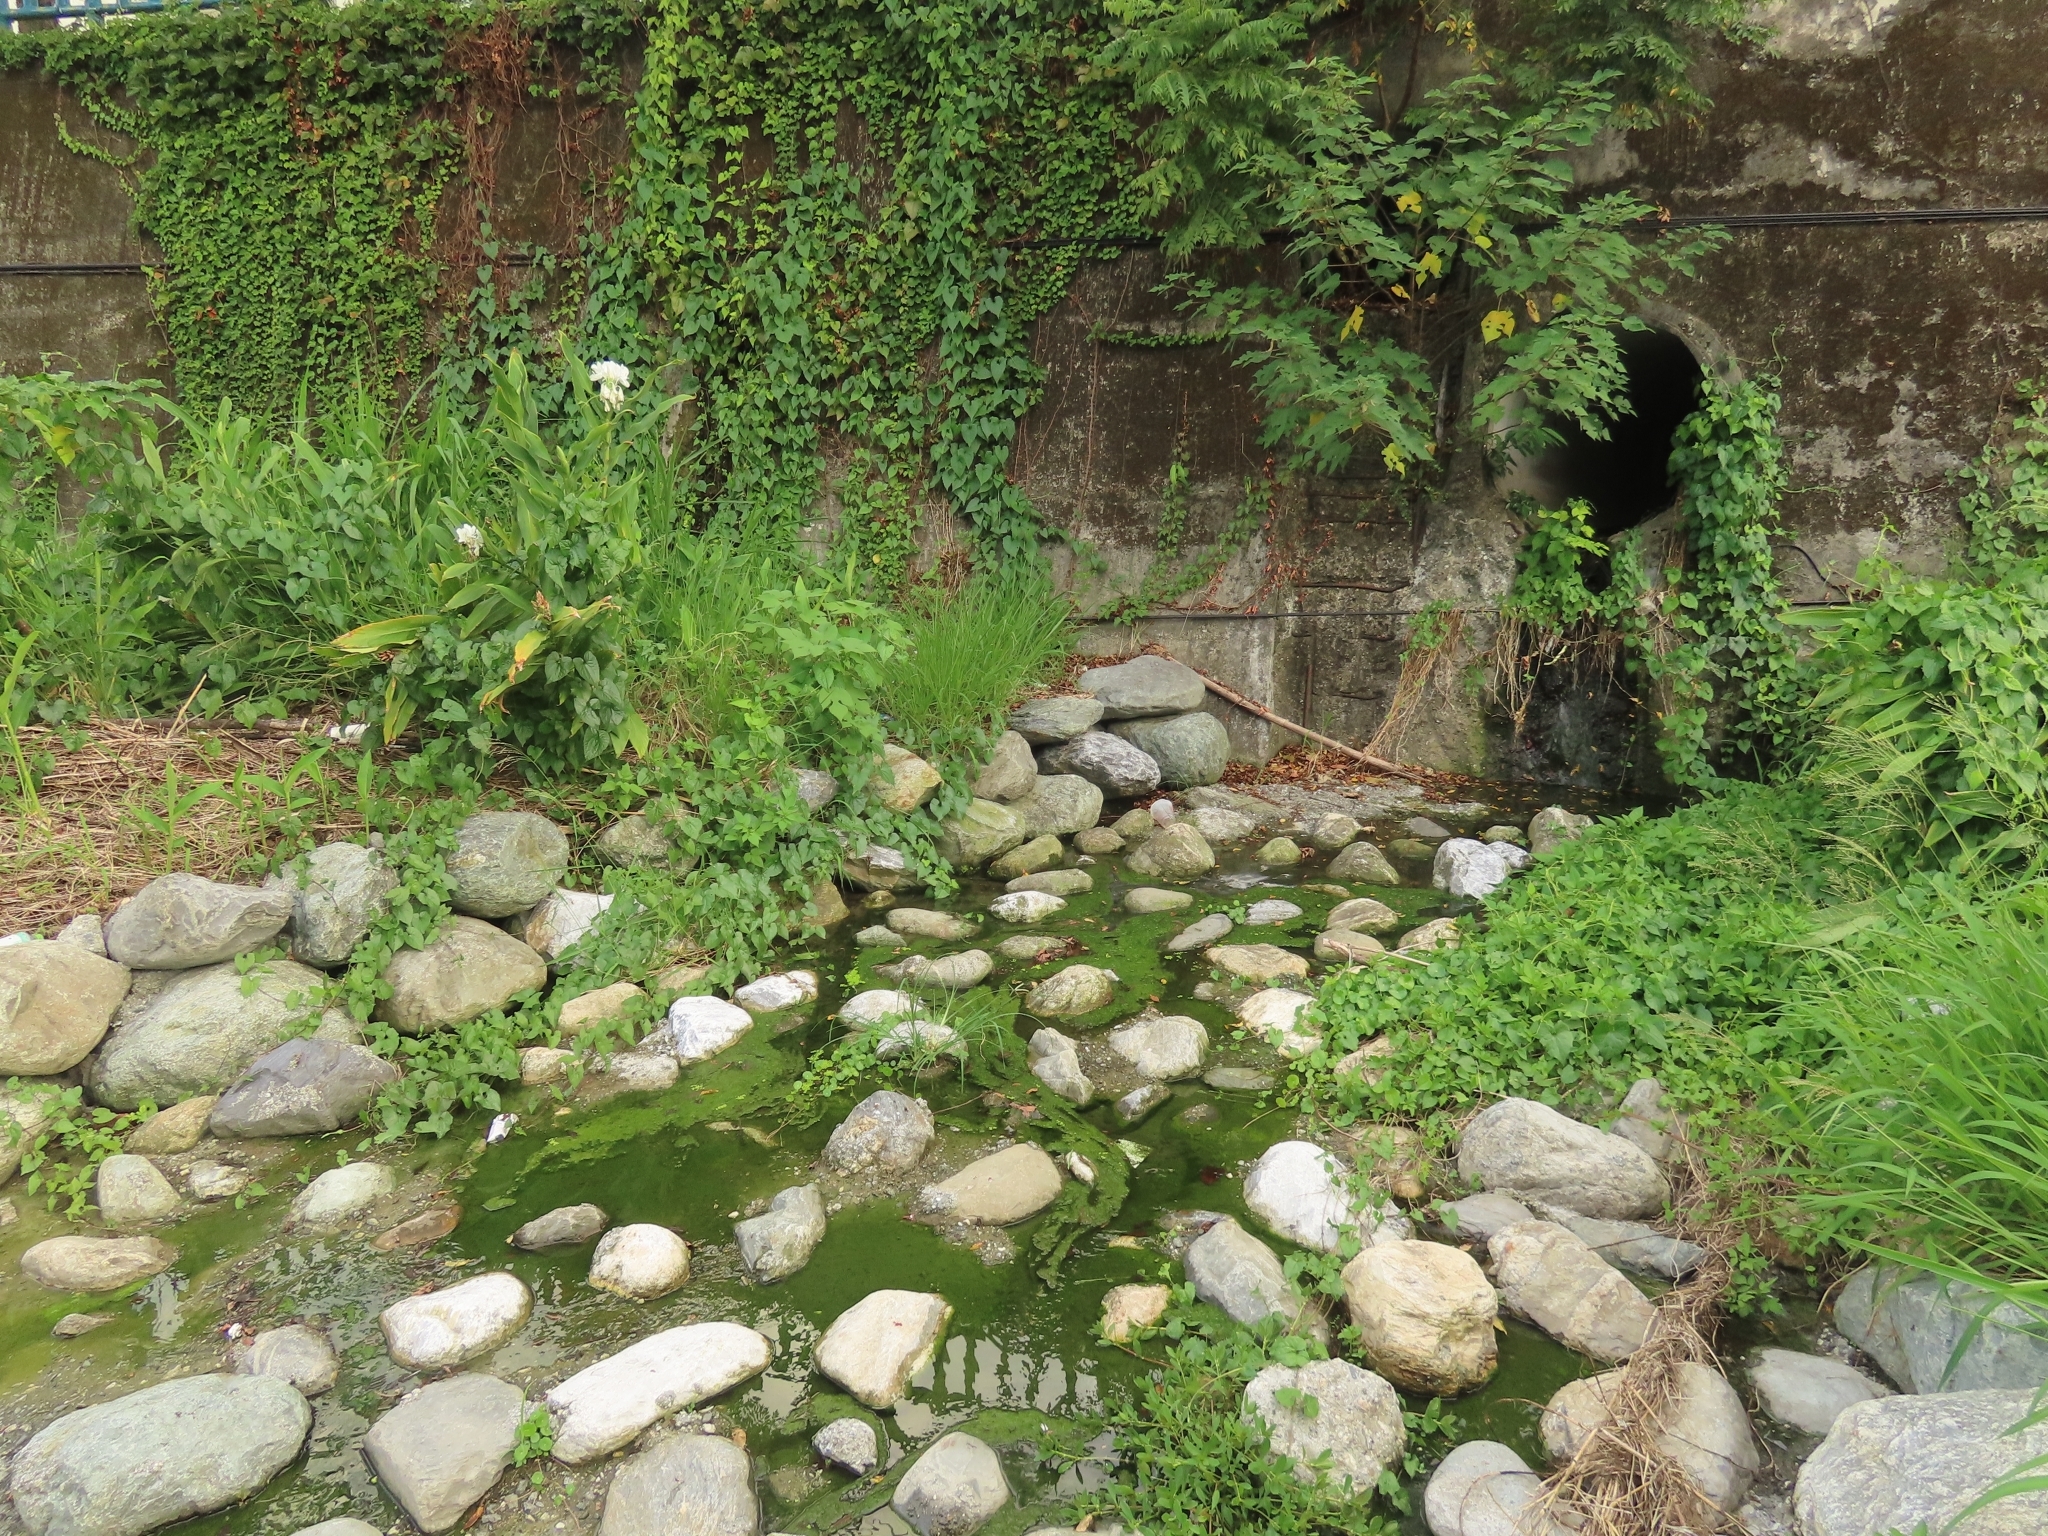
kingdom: Plantae
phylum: Tracheophyta
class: Liliopsida
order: Alismatales
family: Araceae
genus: Lemna
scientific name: Lemna aequinoctialis
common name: Duckweed
